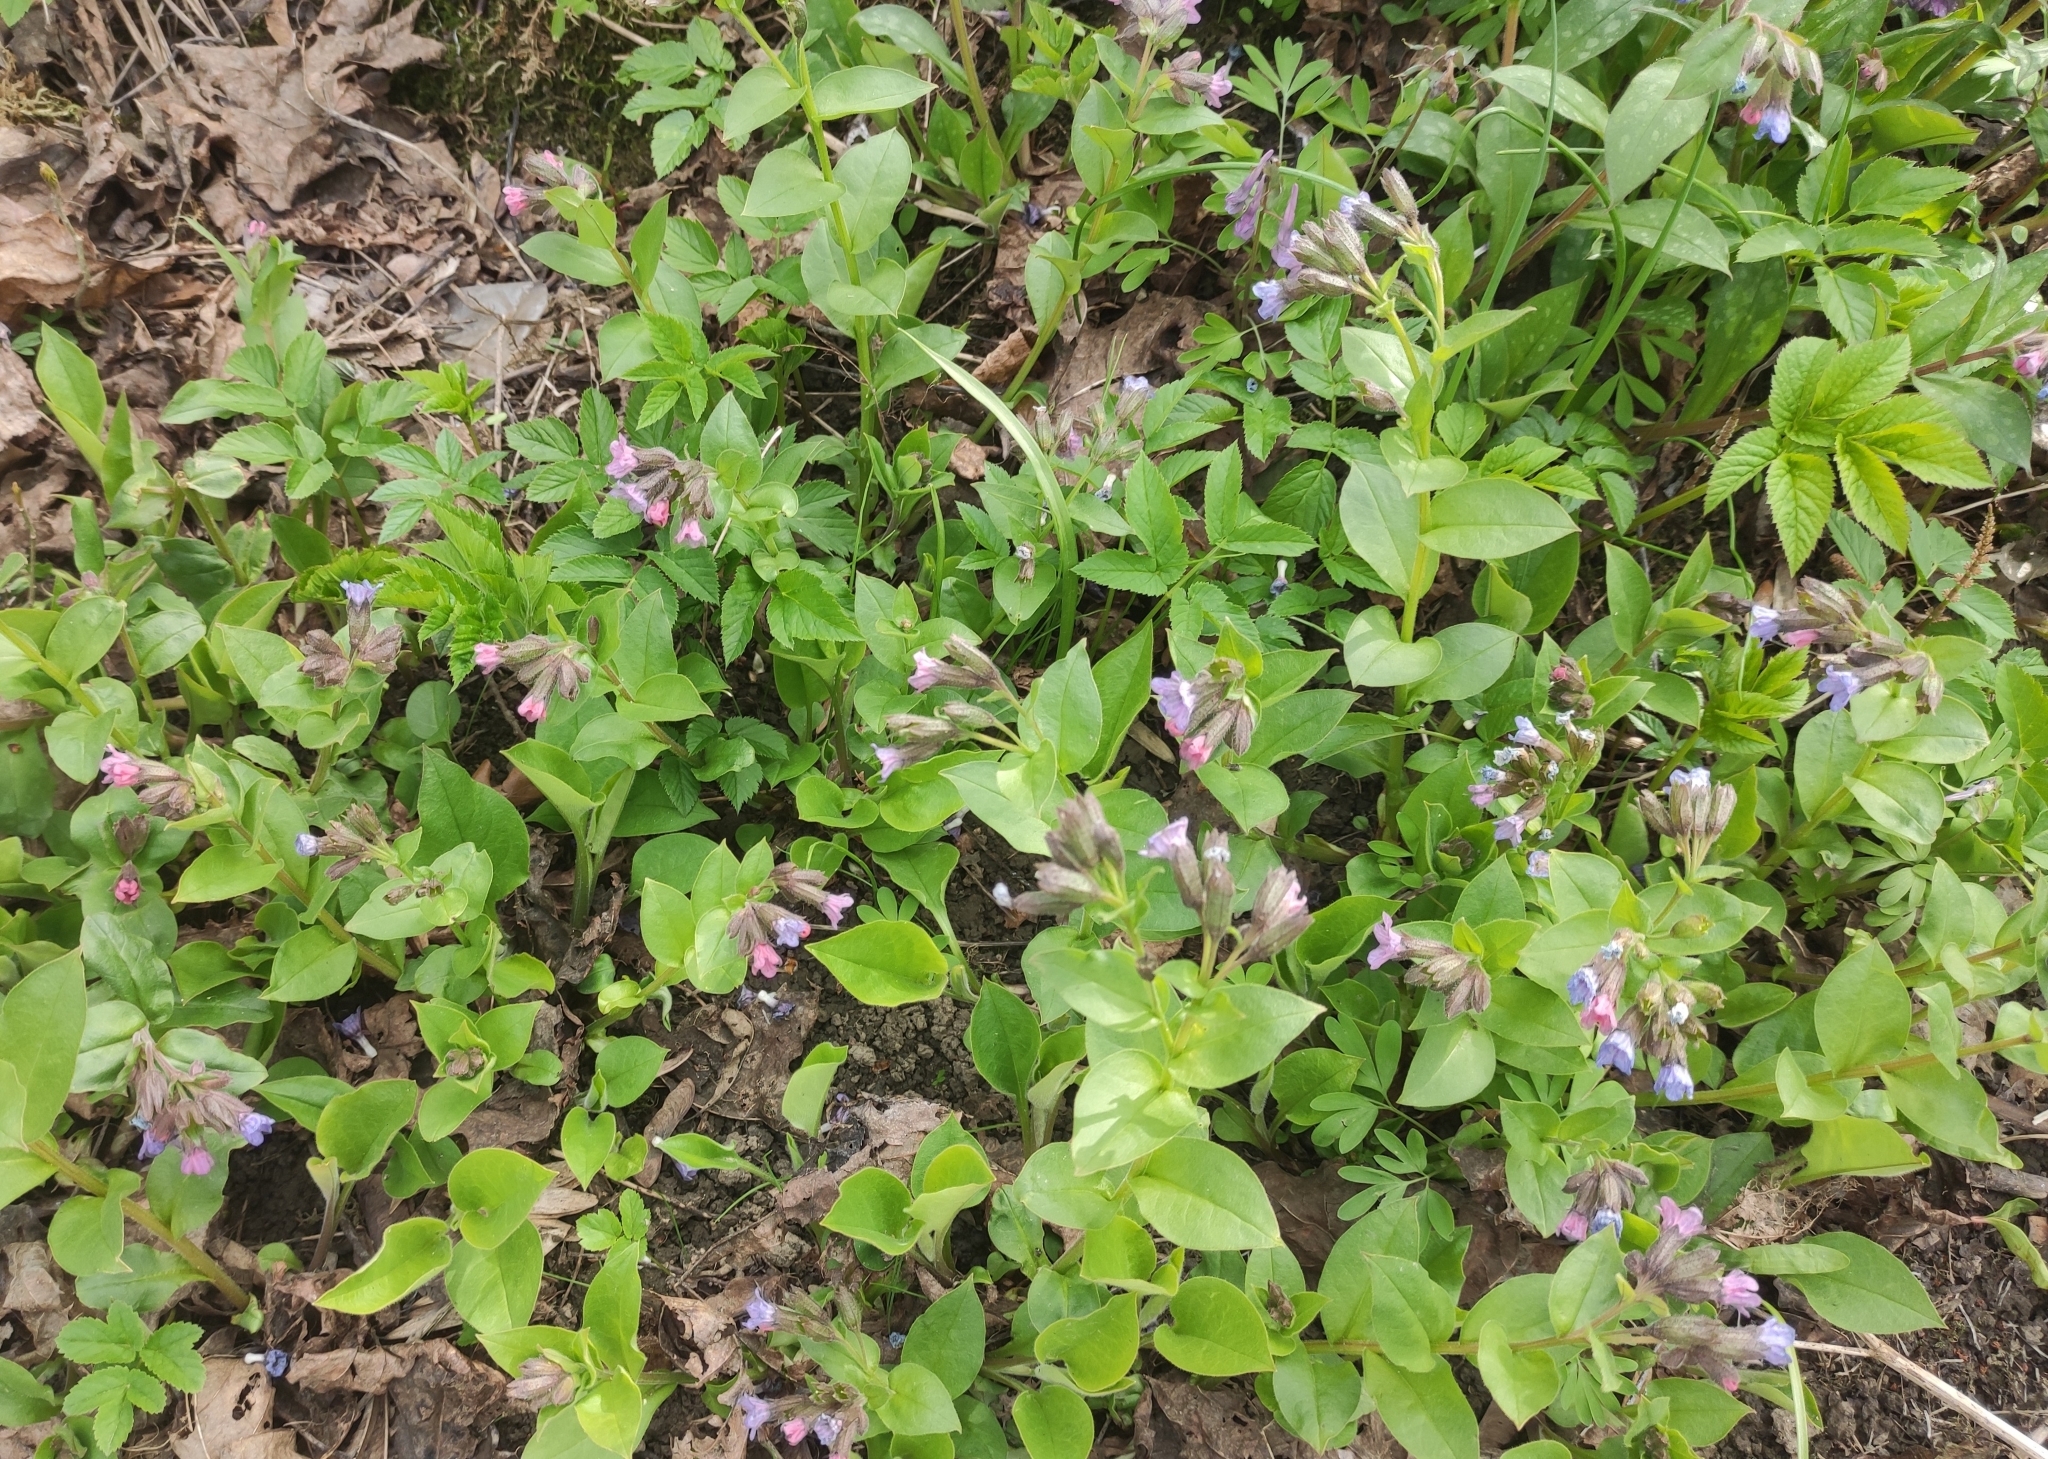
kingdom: Plantae
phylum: Tracheophyta
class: Magnoliopsida
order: Boraginales
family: Boraginaceae
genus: Pulmonaria
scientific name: Pulmonaria obscura
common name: Suffolk lungwort
